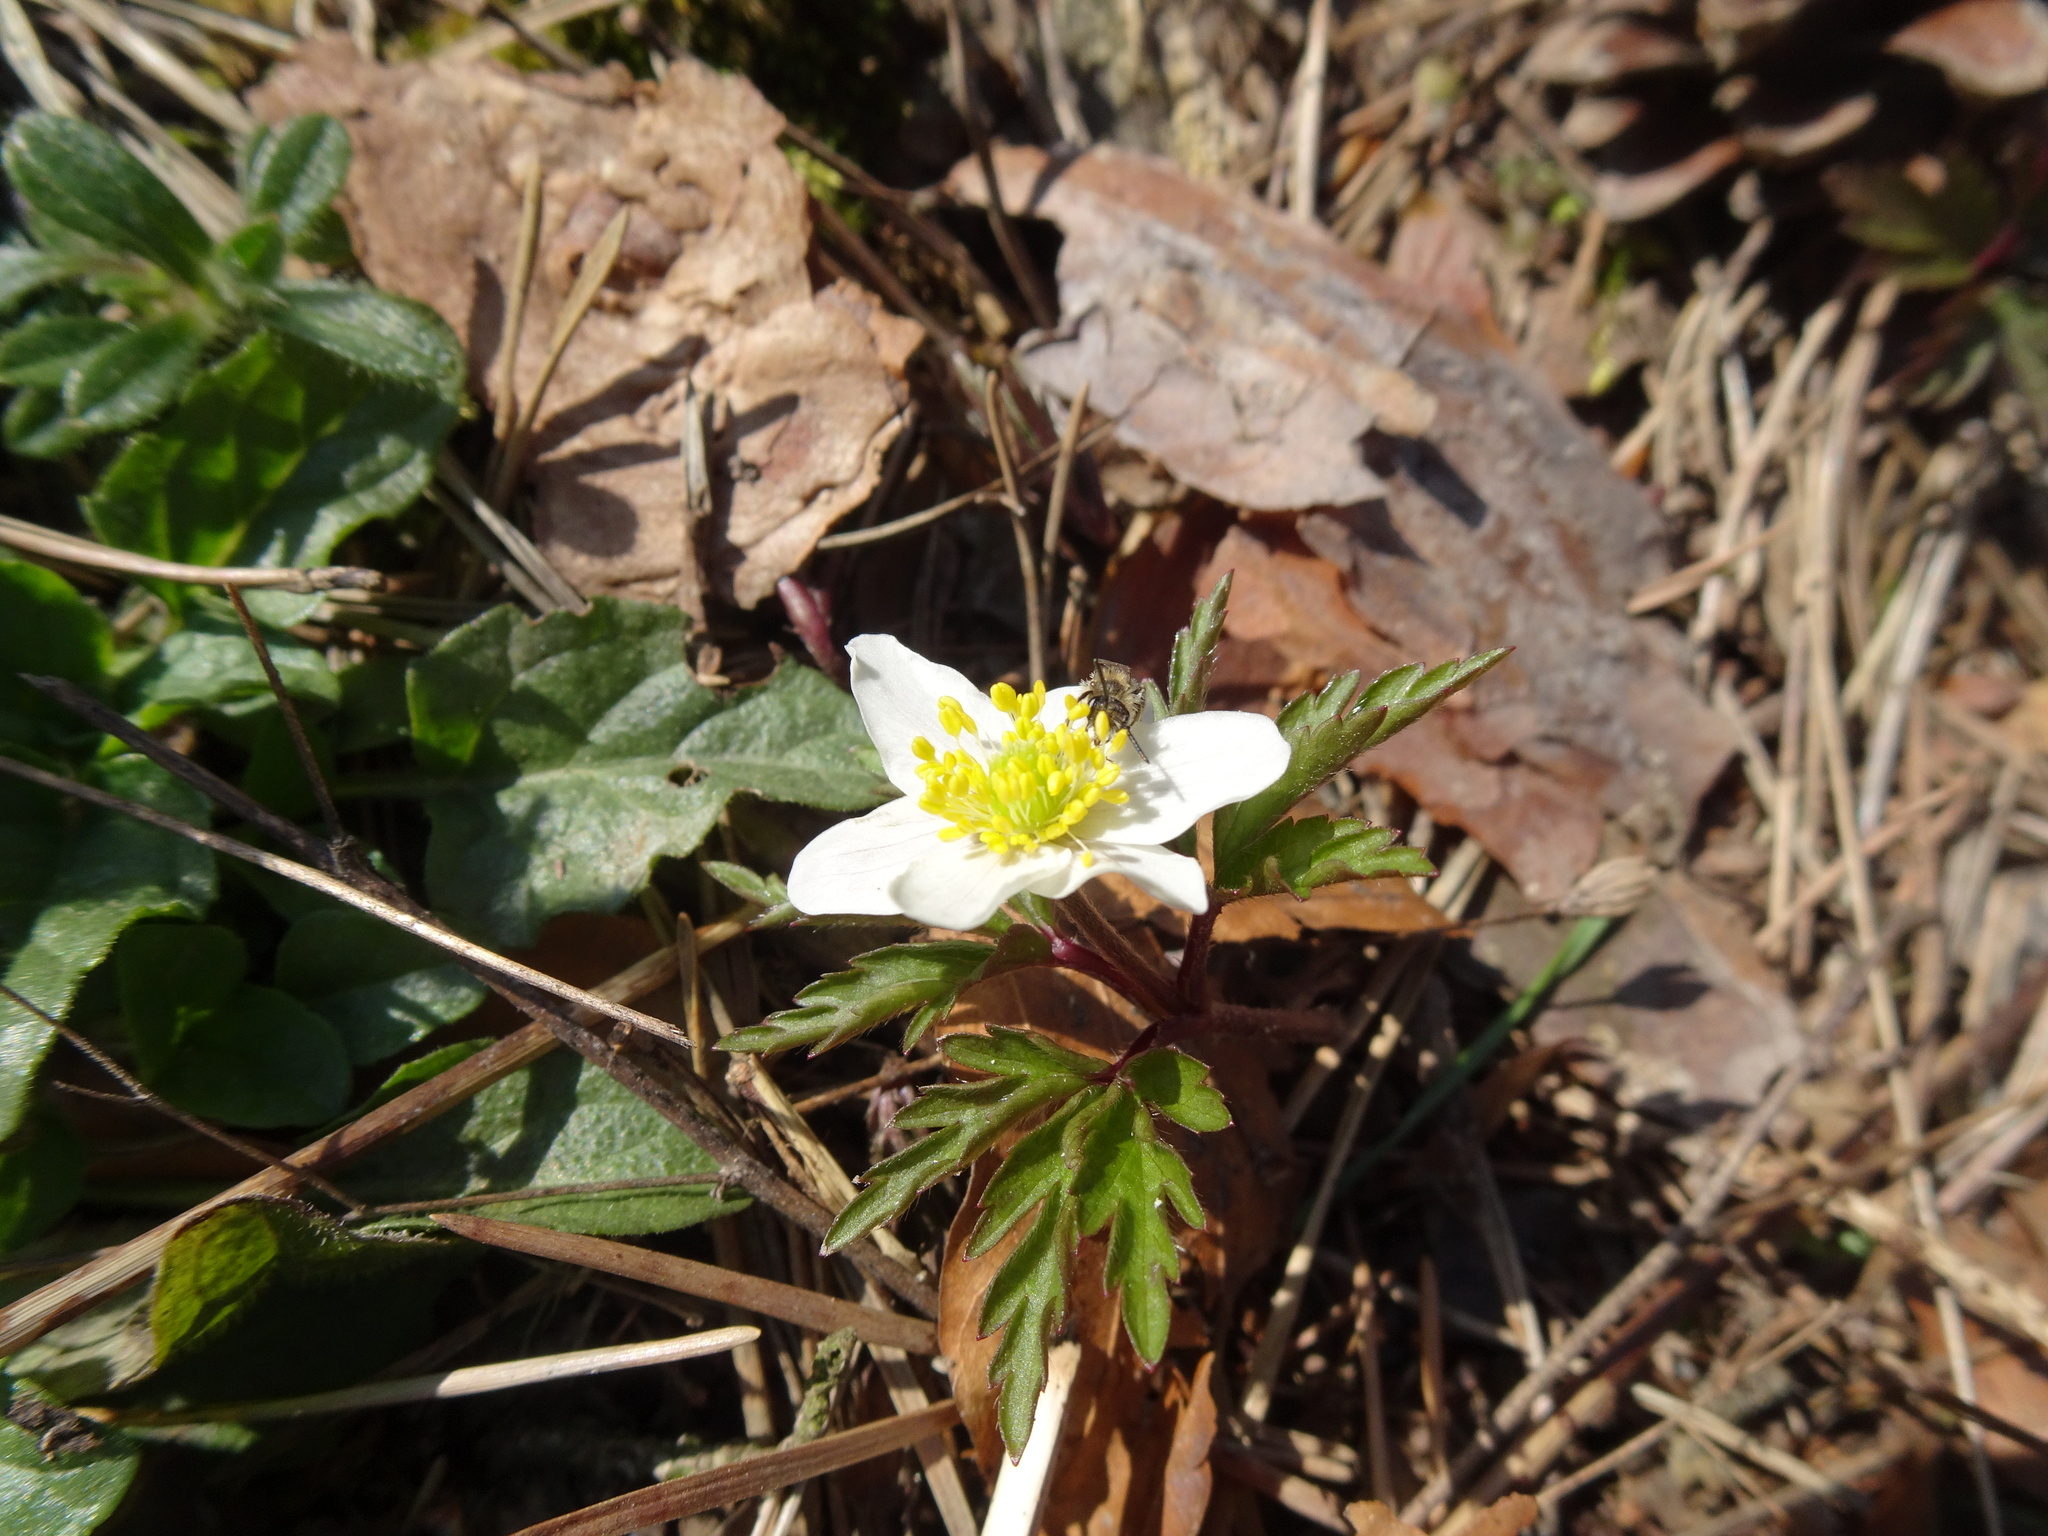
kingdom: Plantae
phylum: Tracheophyta
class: Magnoliopsida
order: Ranunculales
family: Ranunculaceae
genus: Anemone
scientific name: Anemone nemorosa
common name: Wood anemone
